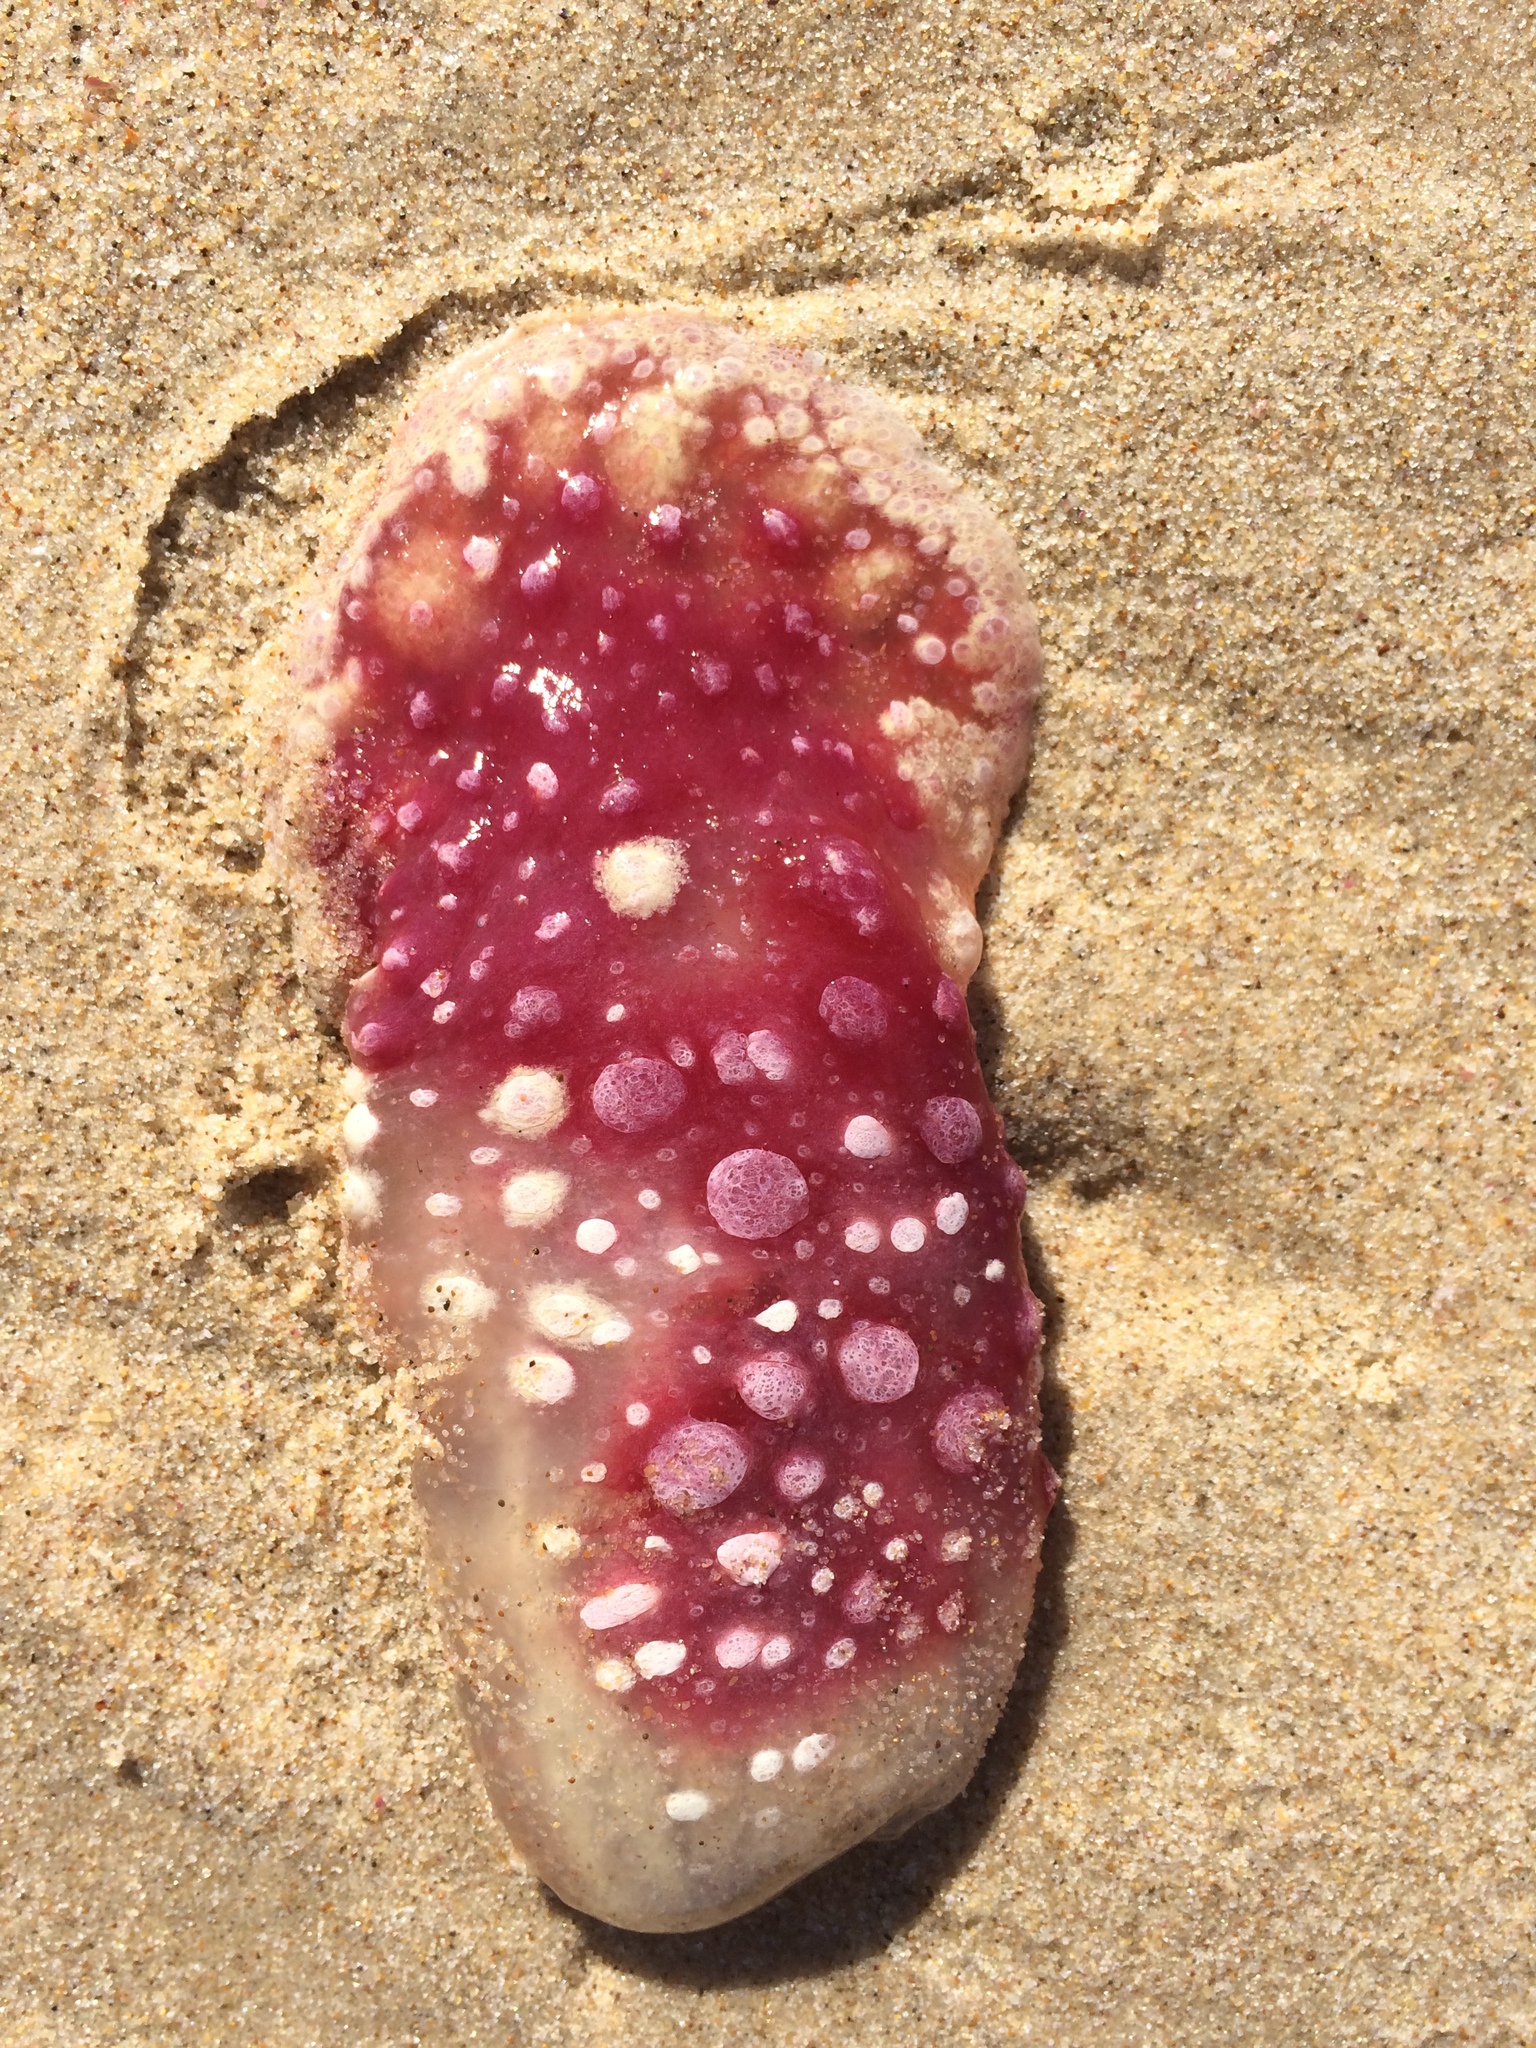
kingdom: Animalia
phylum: Mollusca
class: Gastropoda
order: Nudibranchia
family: Polyceridae
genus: Kalinga
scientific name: Kalinga ornata
